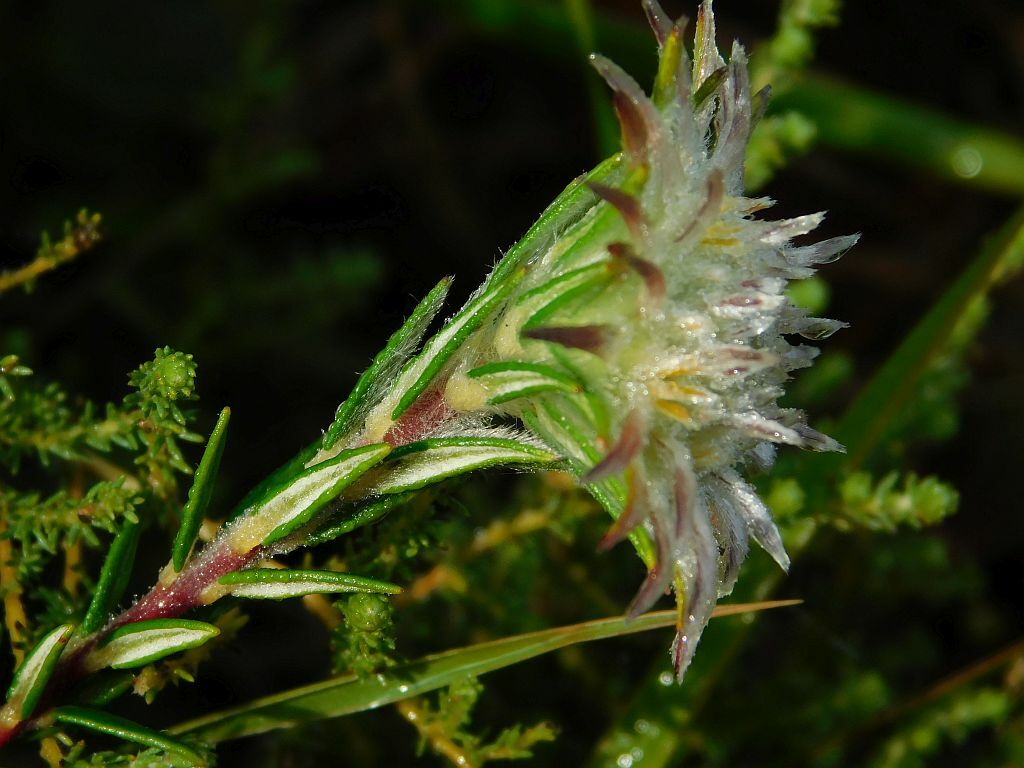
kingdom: Plantae
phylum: Tracheophyta
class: Magnoliopsida
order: Rosales
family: Rhamnaceae
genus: Phylica
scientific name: Phylica calcarata
